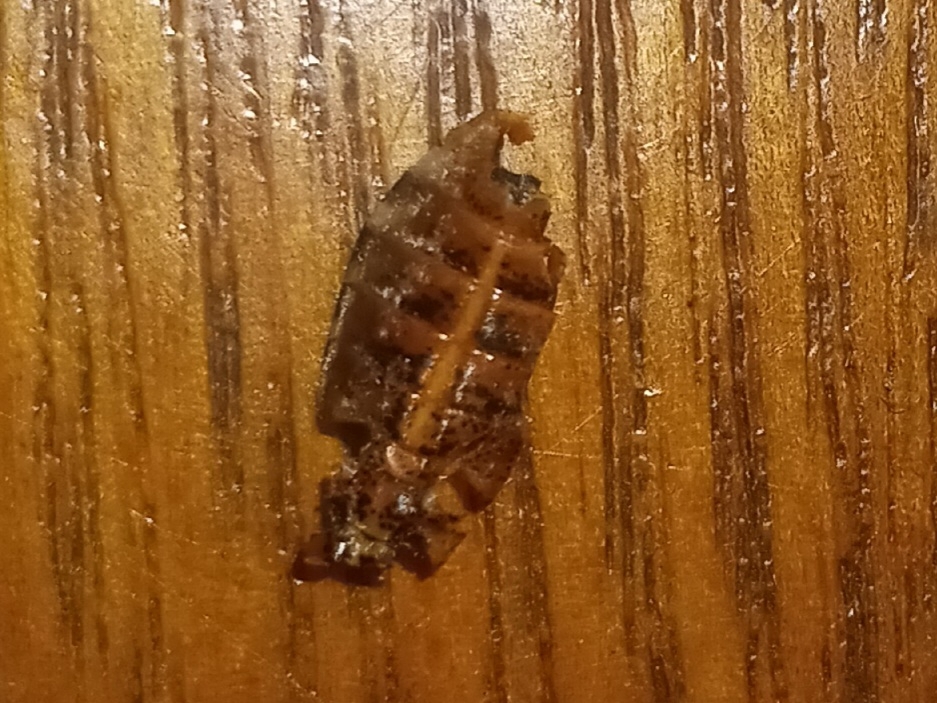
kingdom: Animalia
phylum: Arthropoda
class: Insecta
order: Hemiptera
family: Coreidae
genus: Leptoglossus
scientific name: Leptoglossus occidentalis
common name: Western conifer-seed bug
